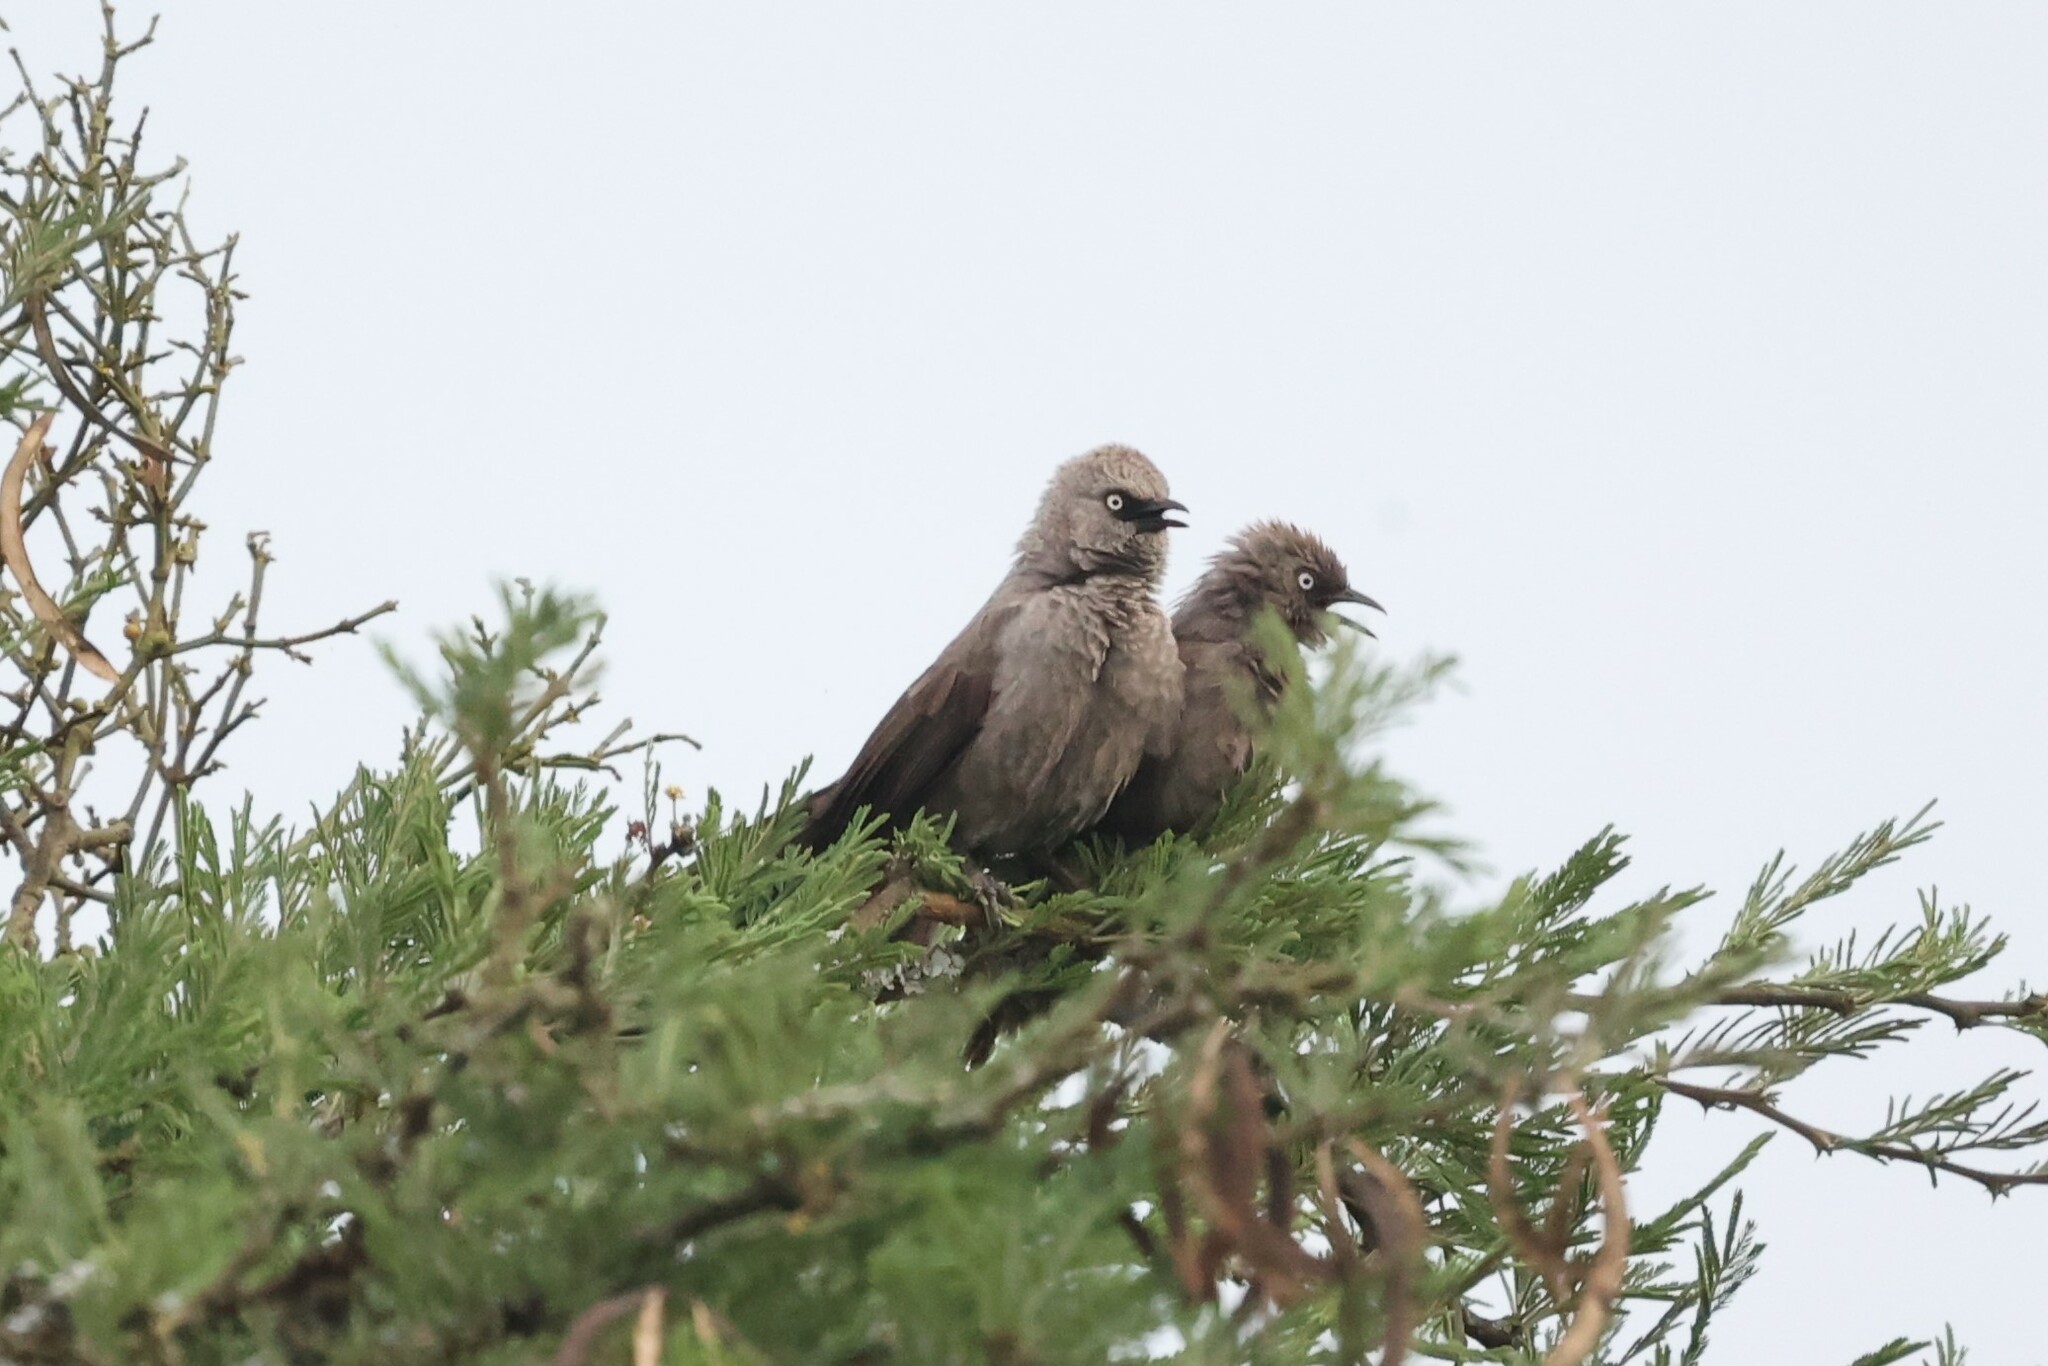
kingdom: Animalia
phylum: Chordata
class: Aves
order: Passeriformes
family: Leiothrichidae
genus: Turdoides
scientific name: Turdoides sharpei
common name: Black-lored babbler
